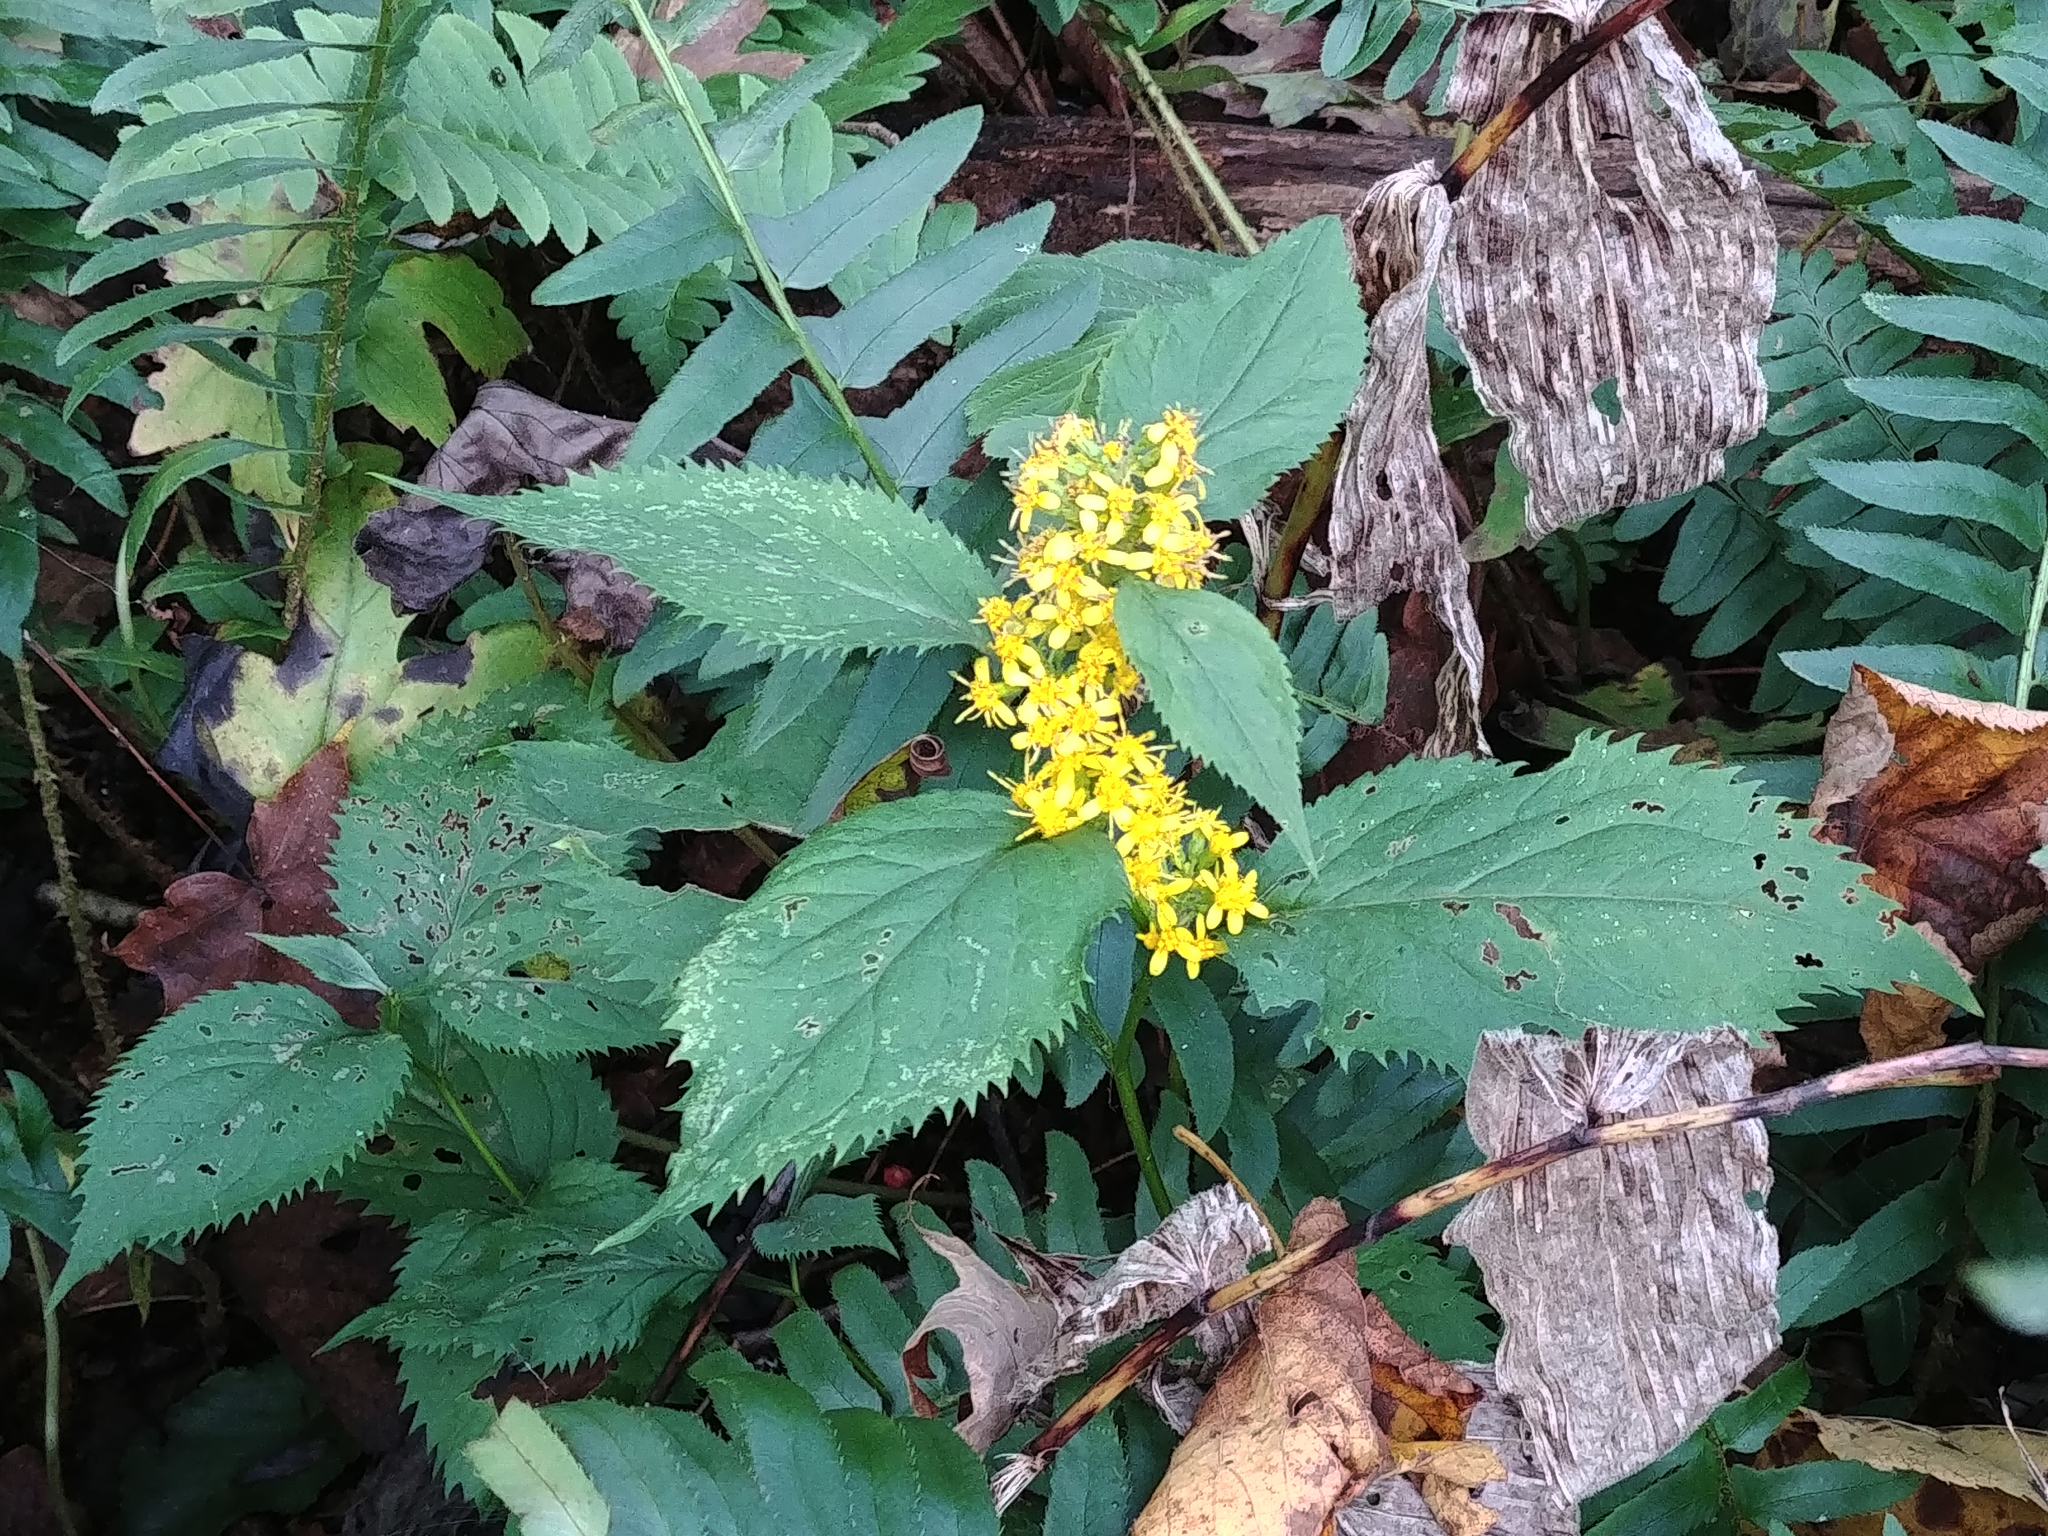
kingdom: Plantae
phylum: Tracheophyta
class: Magnoliopsida
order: Asterales
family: Asteraceae
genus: Solidago
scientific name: Solidago flexicaulis
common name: Zig-zag goldenrod
